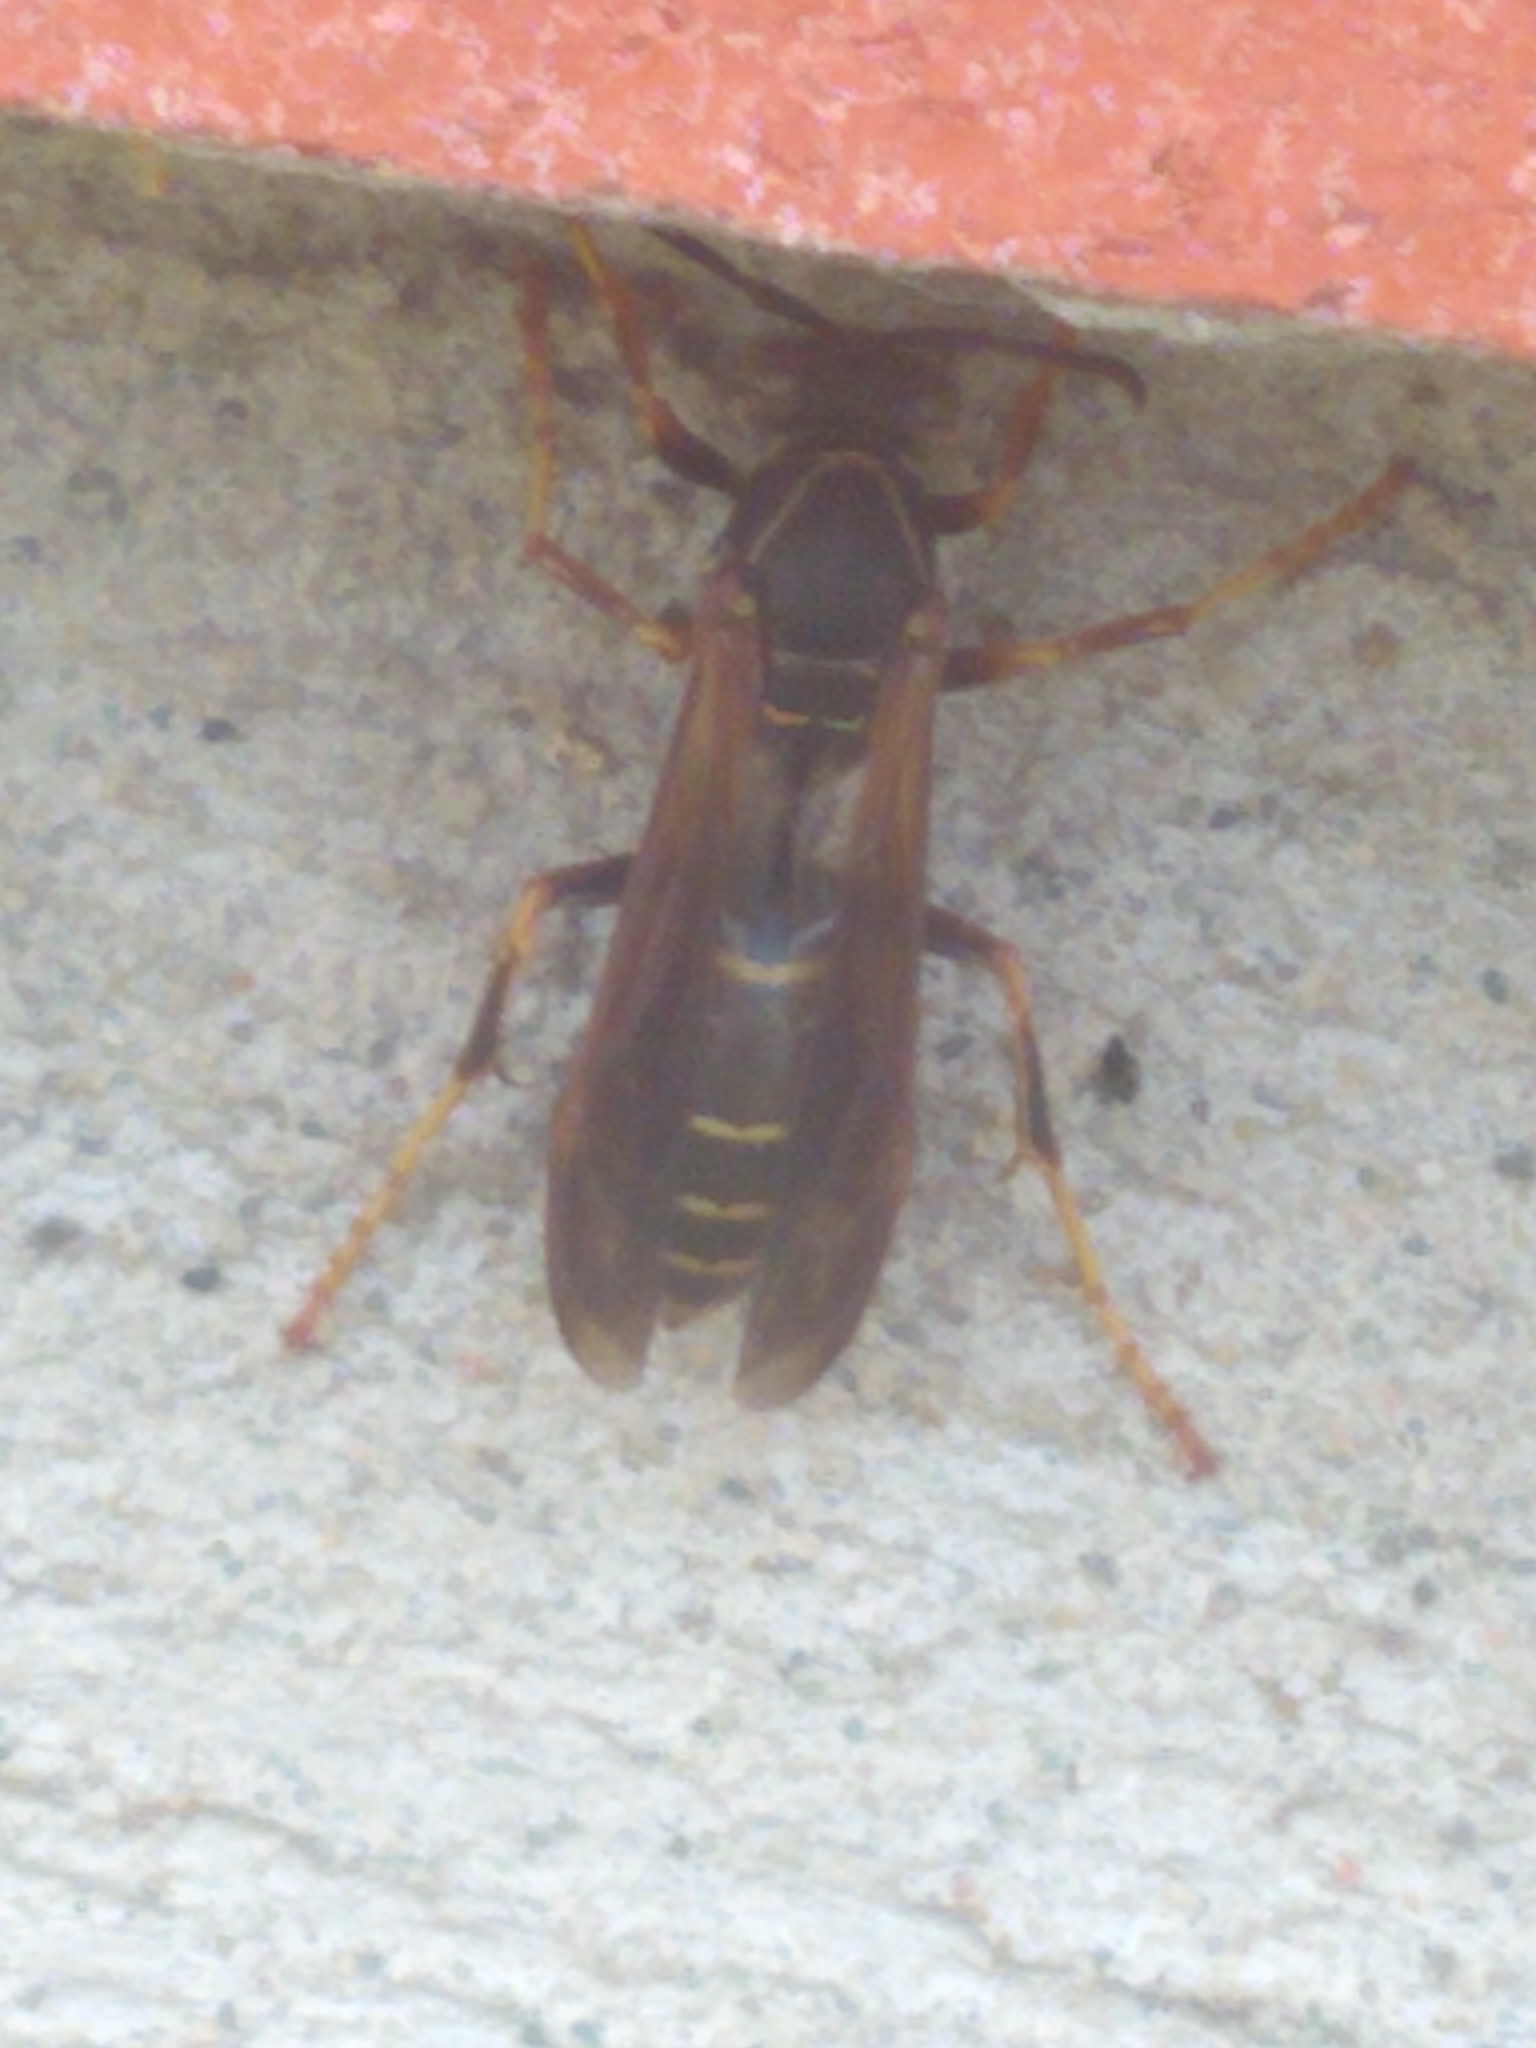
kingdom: Animalia
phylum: Arthropoda
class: Insecta
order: Hymenoptera
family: Eumenidae
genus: Polistes
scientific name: Polistes fuscatus
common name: Dark paper wasp
